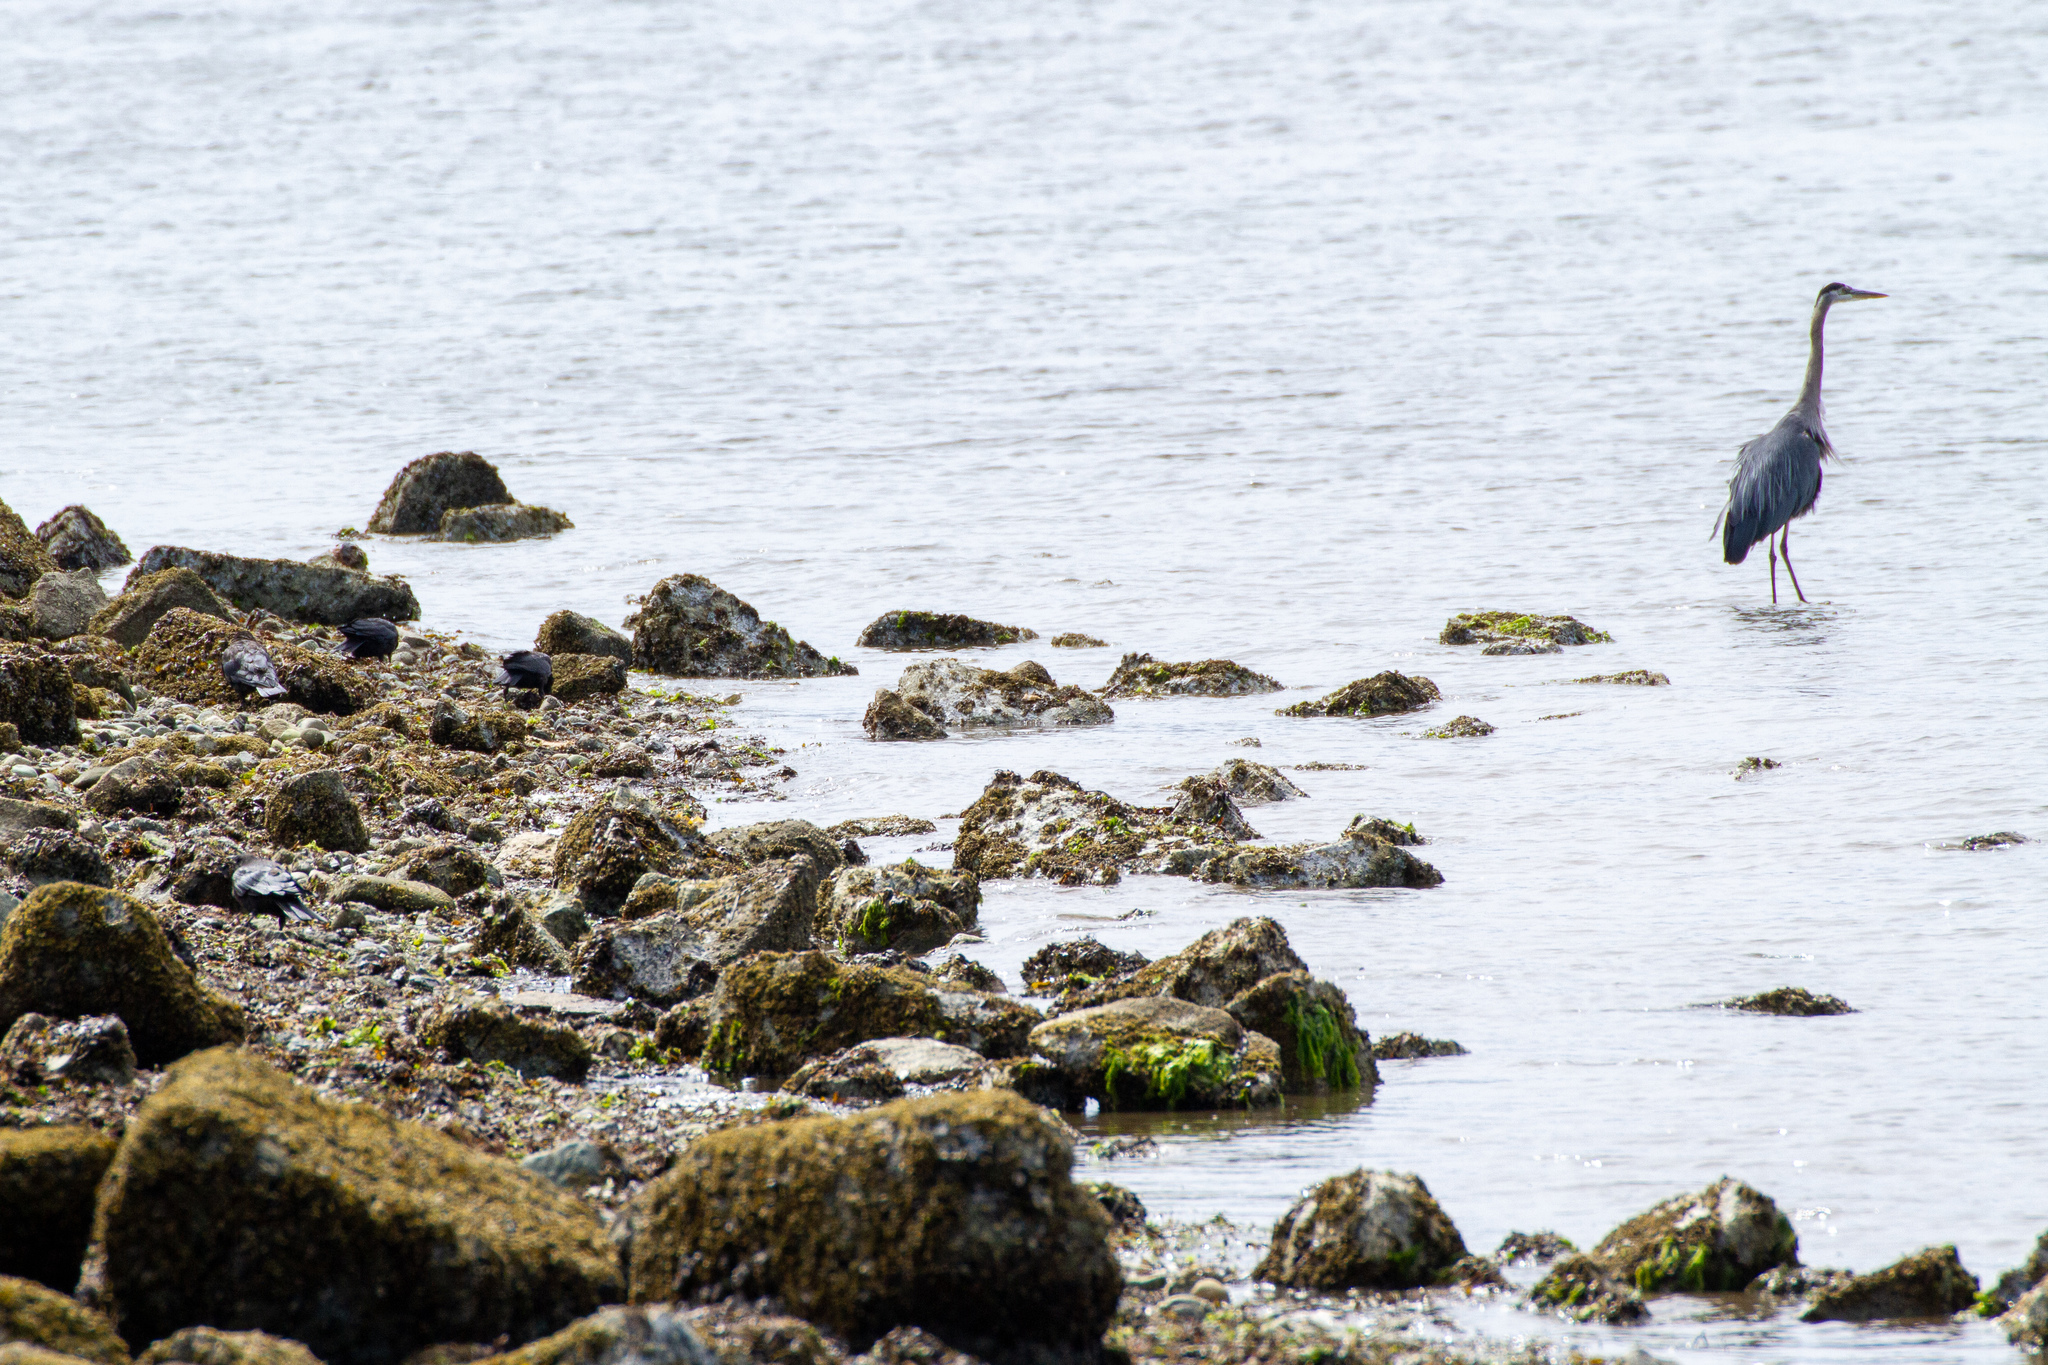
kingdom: Animalia
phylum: Chordata
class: Aves
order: Pelecaniformes
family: Ardeidae
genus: Ardea
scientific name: Ardea herodias
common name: Great blue heron
